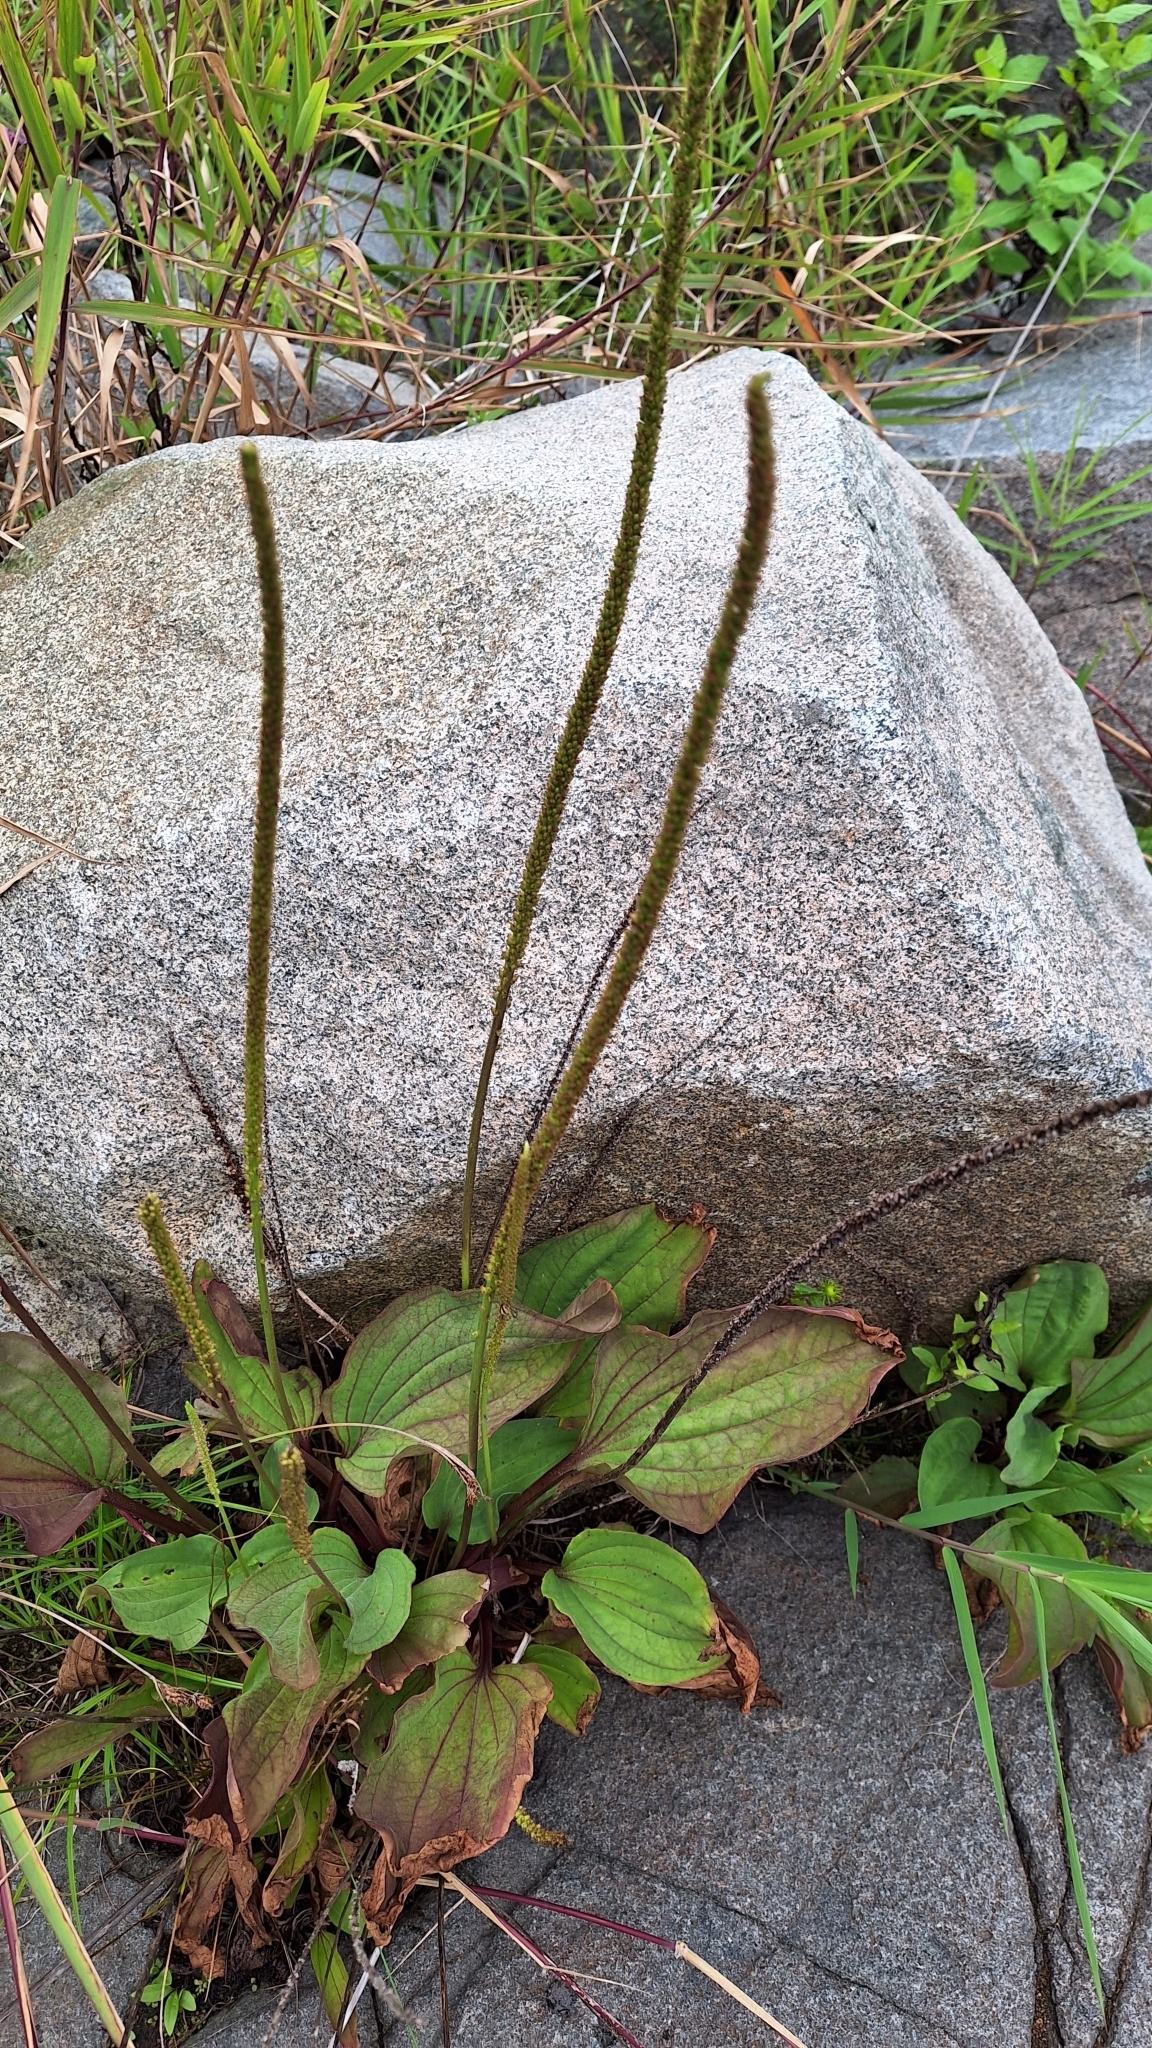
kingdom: Plantae
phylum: Tracheophyta
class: Magnoliopsida
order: Lamiales
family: Plantaginaceae
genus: Plantago
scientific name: Plantago asiatica
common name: Psyllium
